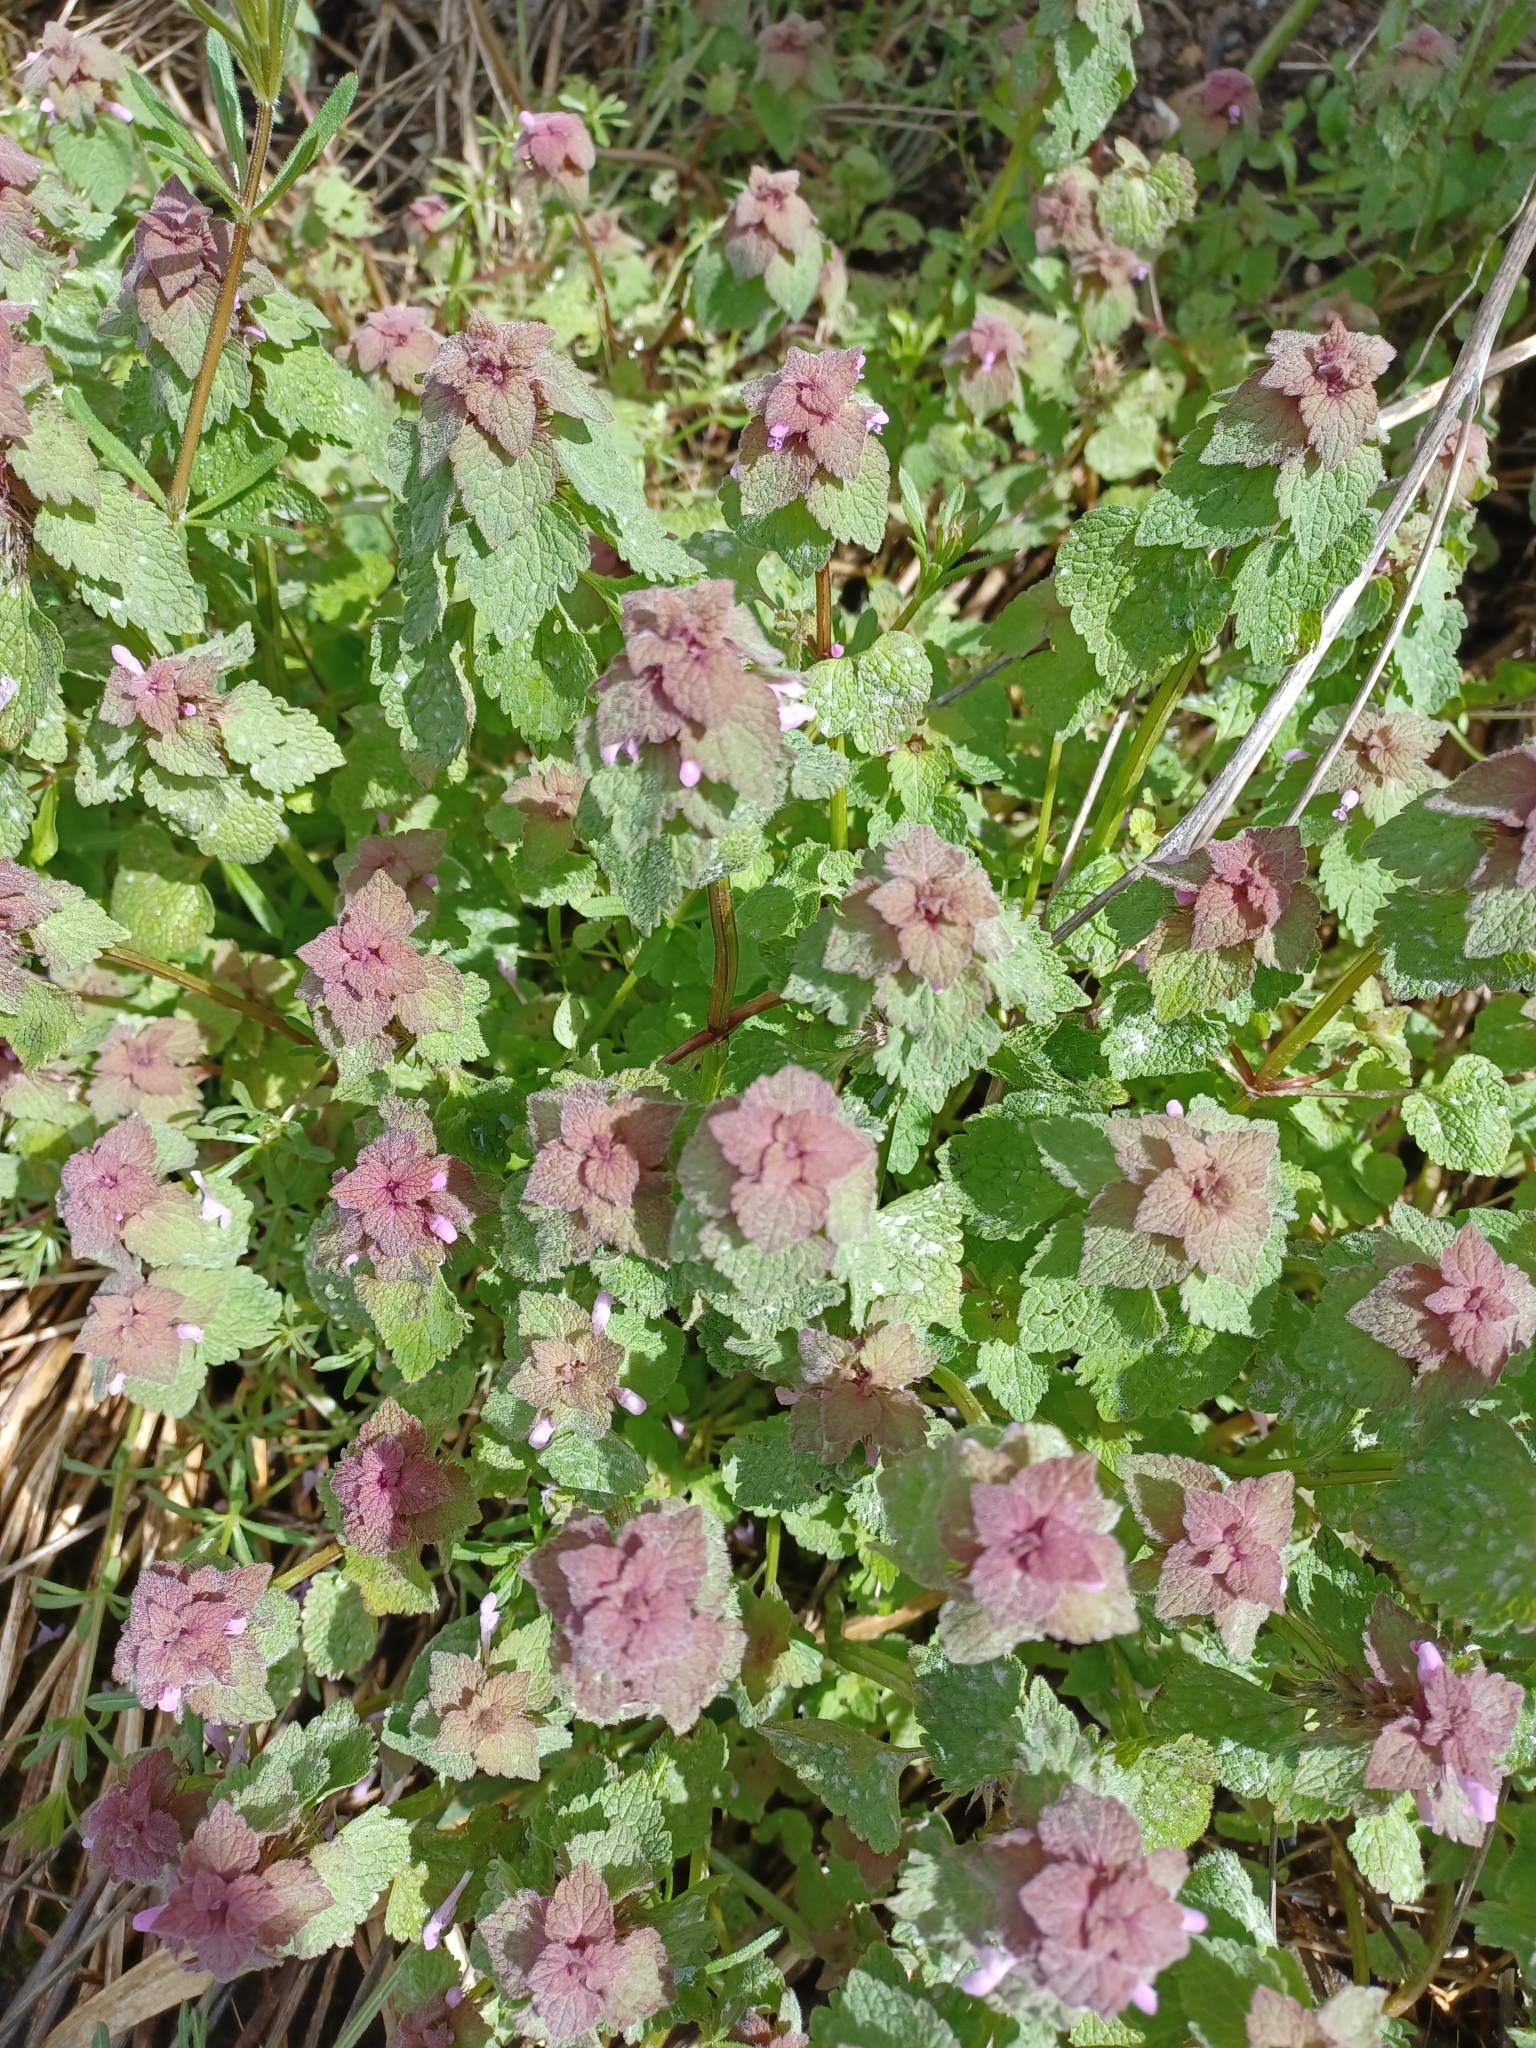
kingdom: Plantae
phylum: Tracheophyta
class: Magnoliopsida
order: Lamiales
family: Lamiaceae
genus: Lamium
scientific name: Lamium purpureum
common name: Red dead-nettle
